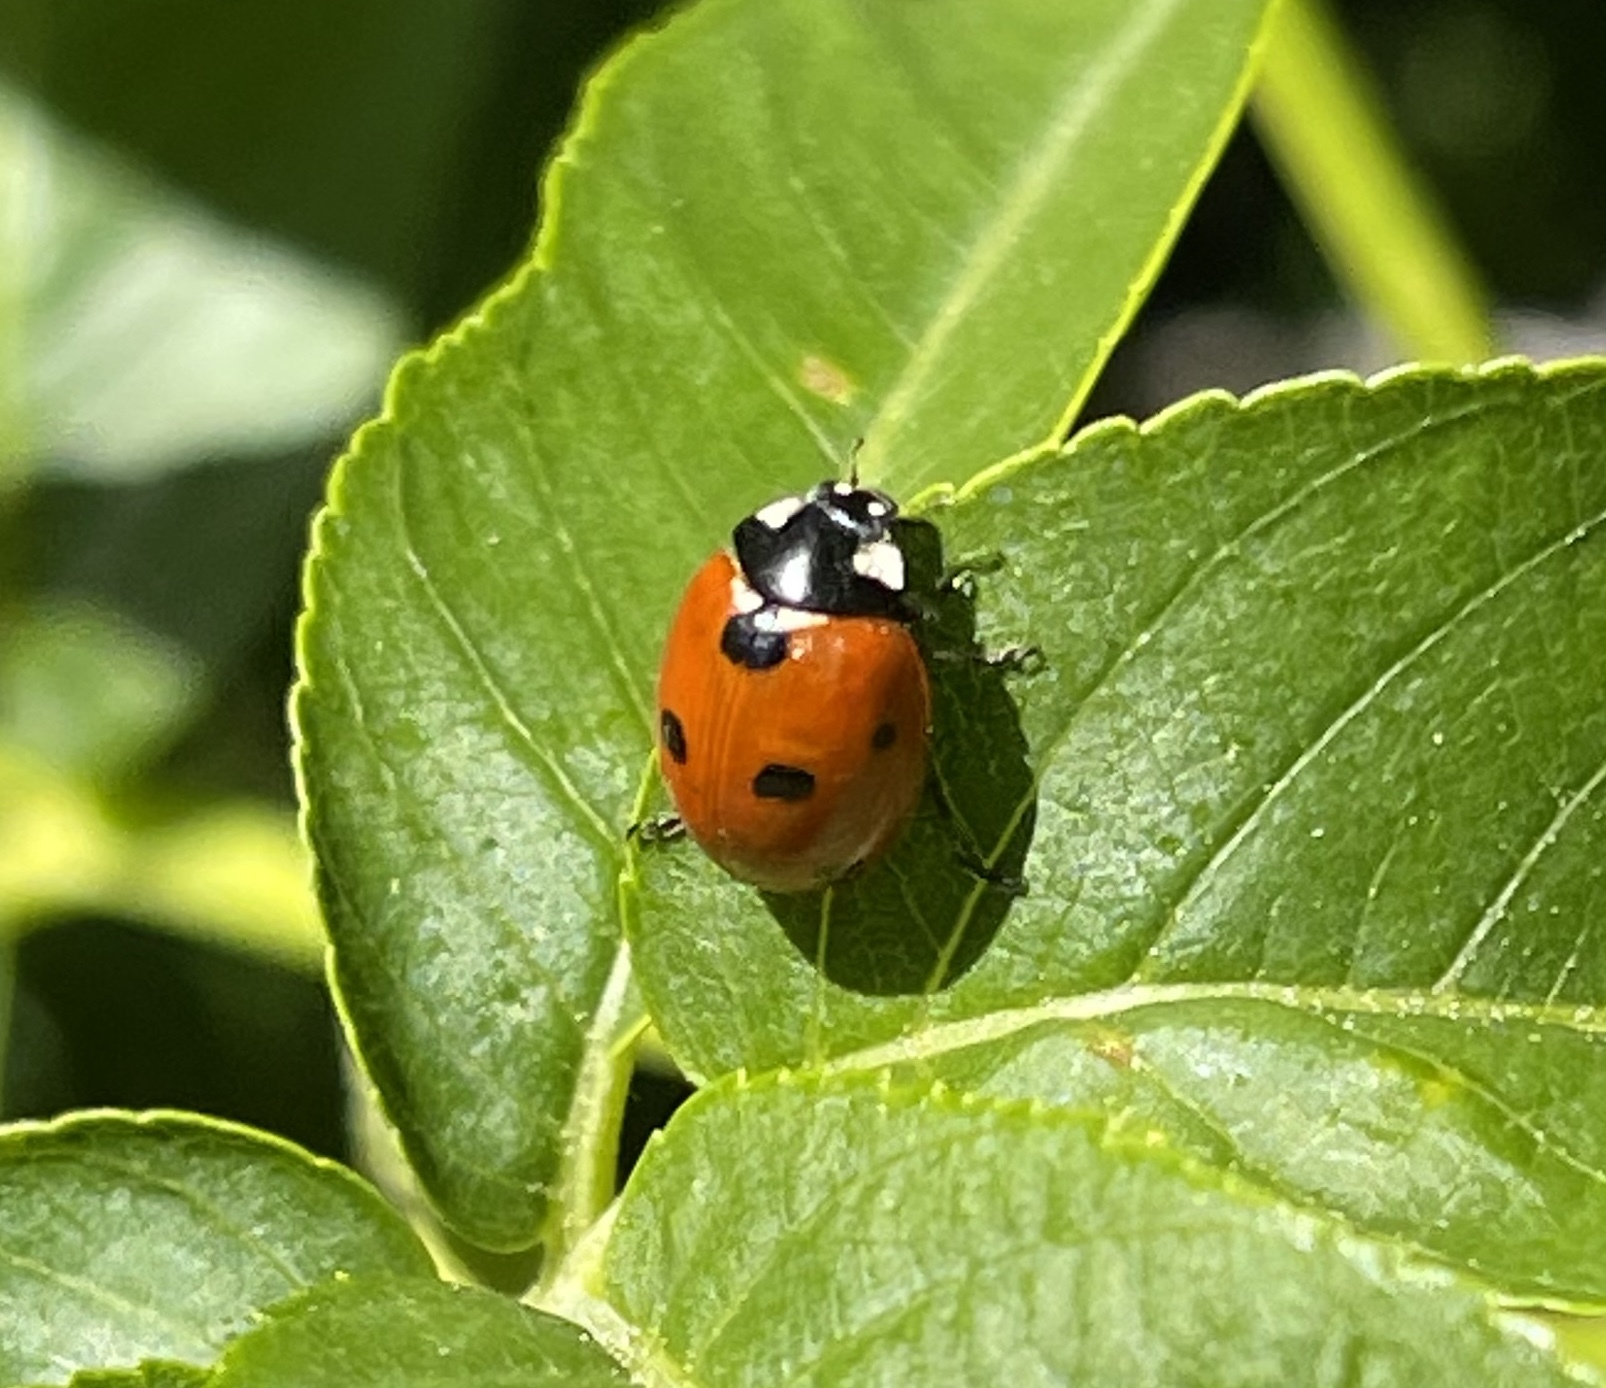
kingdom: Animalia
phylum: Arthropoda
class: Insecta
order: Coleoptera
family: Coccinellidae
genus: Coccinella
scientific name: Coccinella septempunctata
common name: Sevenspotted lady beetle
